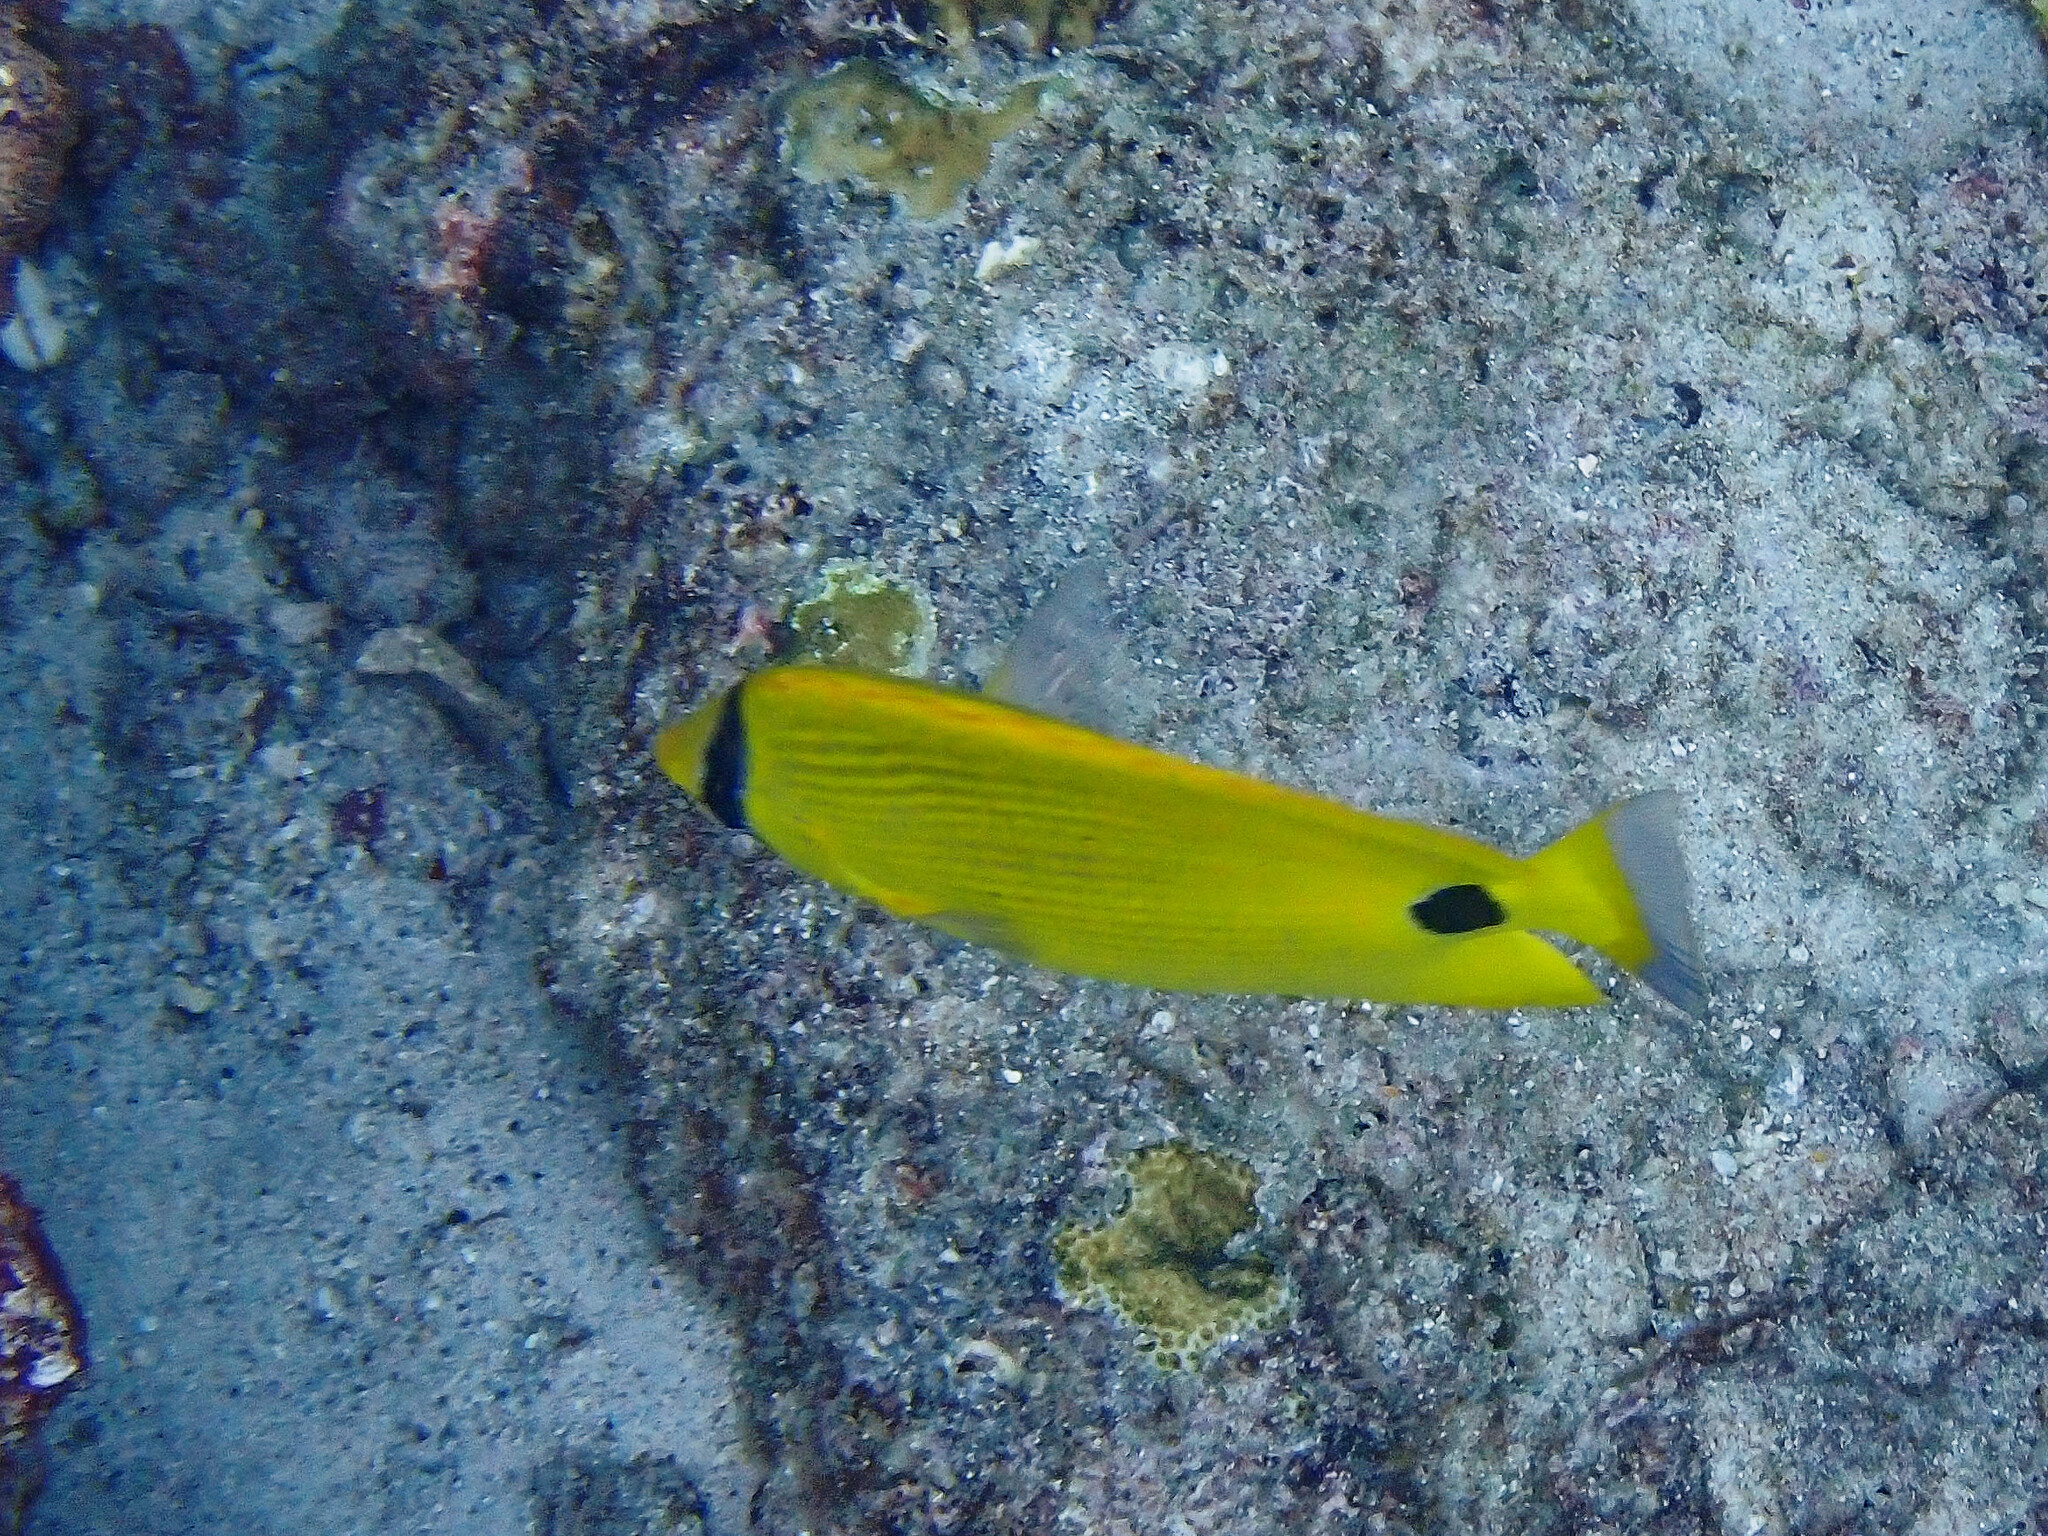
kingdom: Animalia
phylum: Chordata
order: Perciformes
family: Chaetodontidae
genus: Chaetodon
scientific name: Chaetodon andamanensis
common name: Yellow butterflyfish
